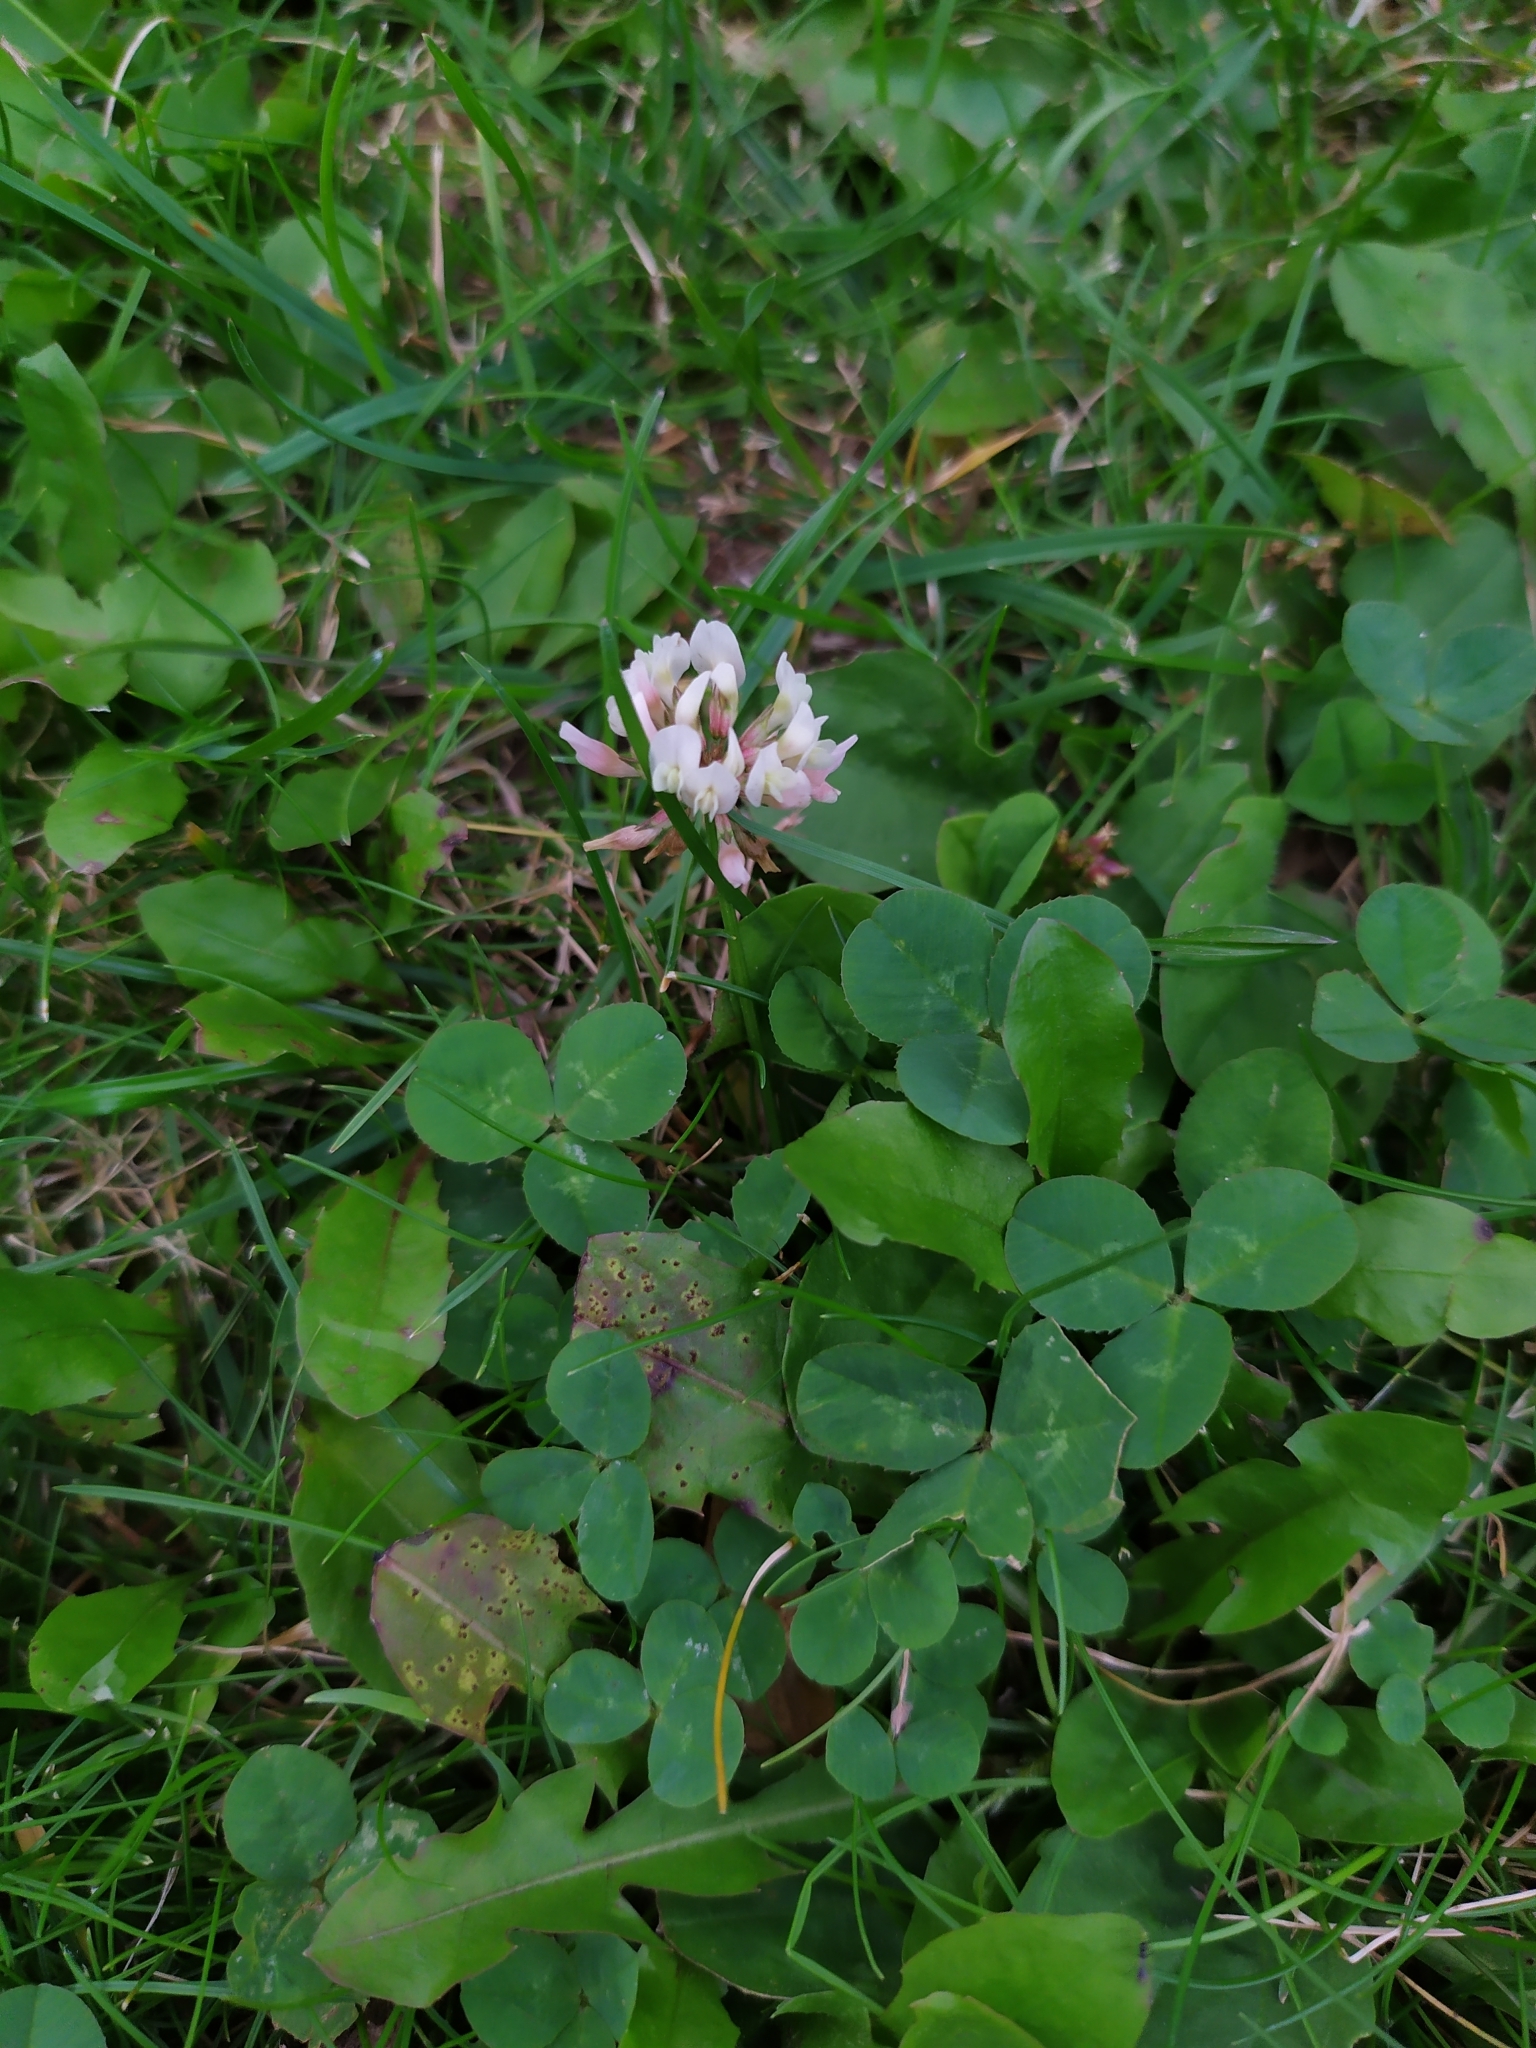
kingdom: Plantae
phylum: Tracheophyta
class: Magnoliopsida
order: Fabales
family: Fabaceae
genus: Trifolium
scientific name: Trifolium repens
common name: White clover
